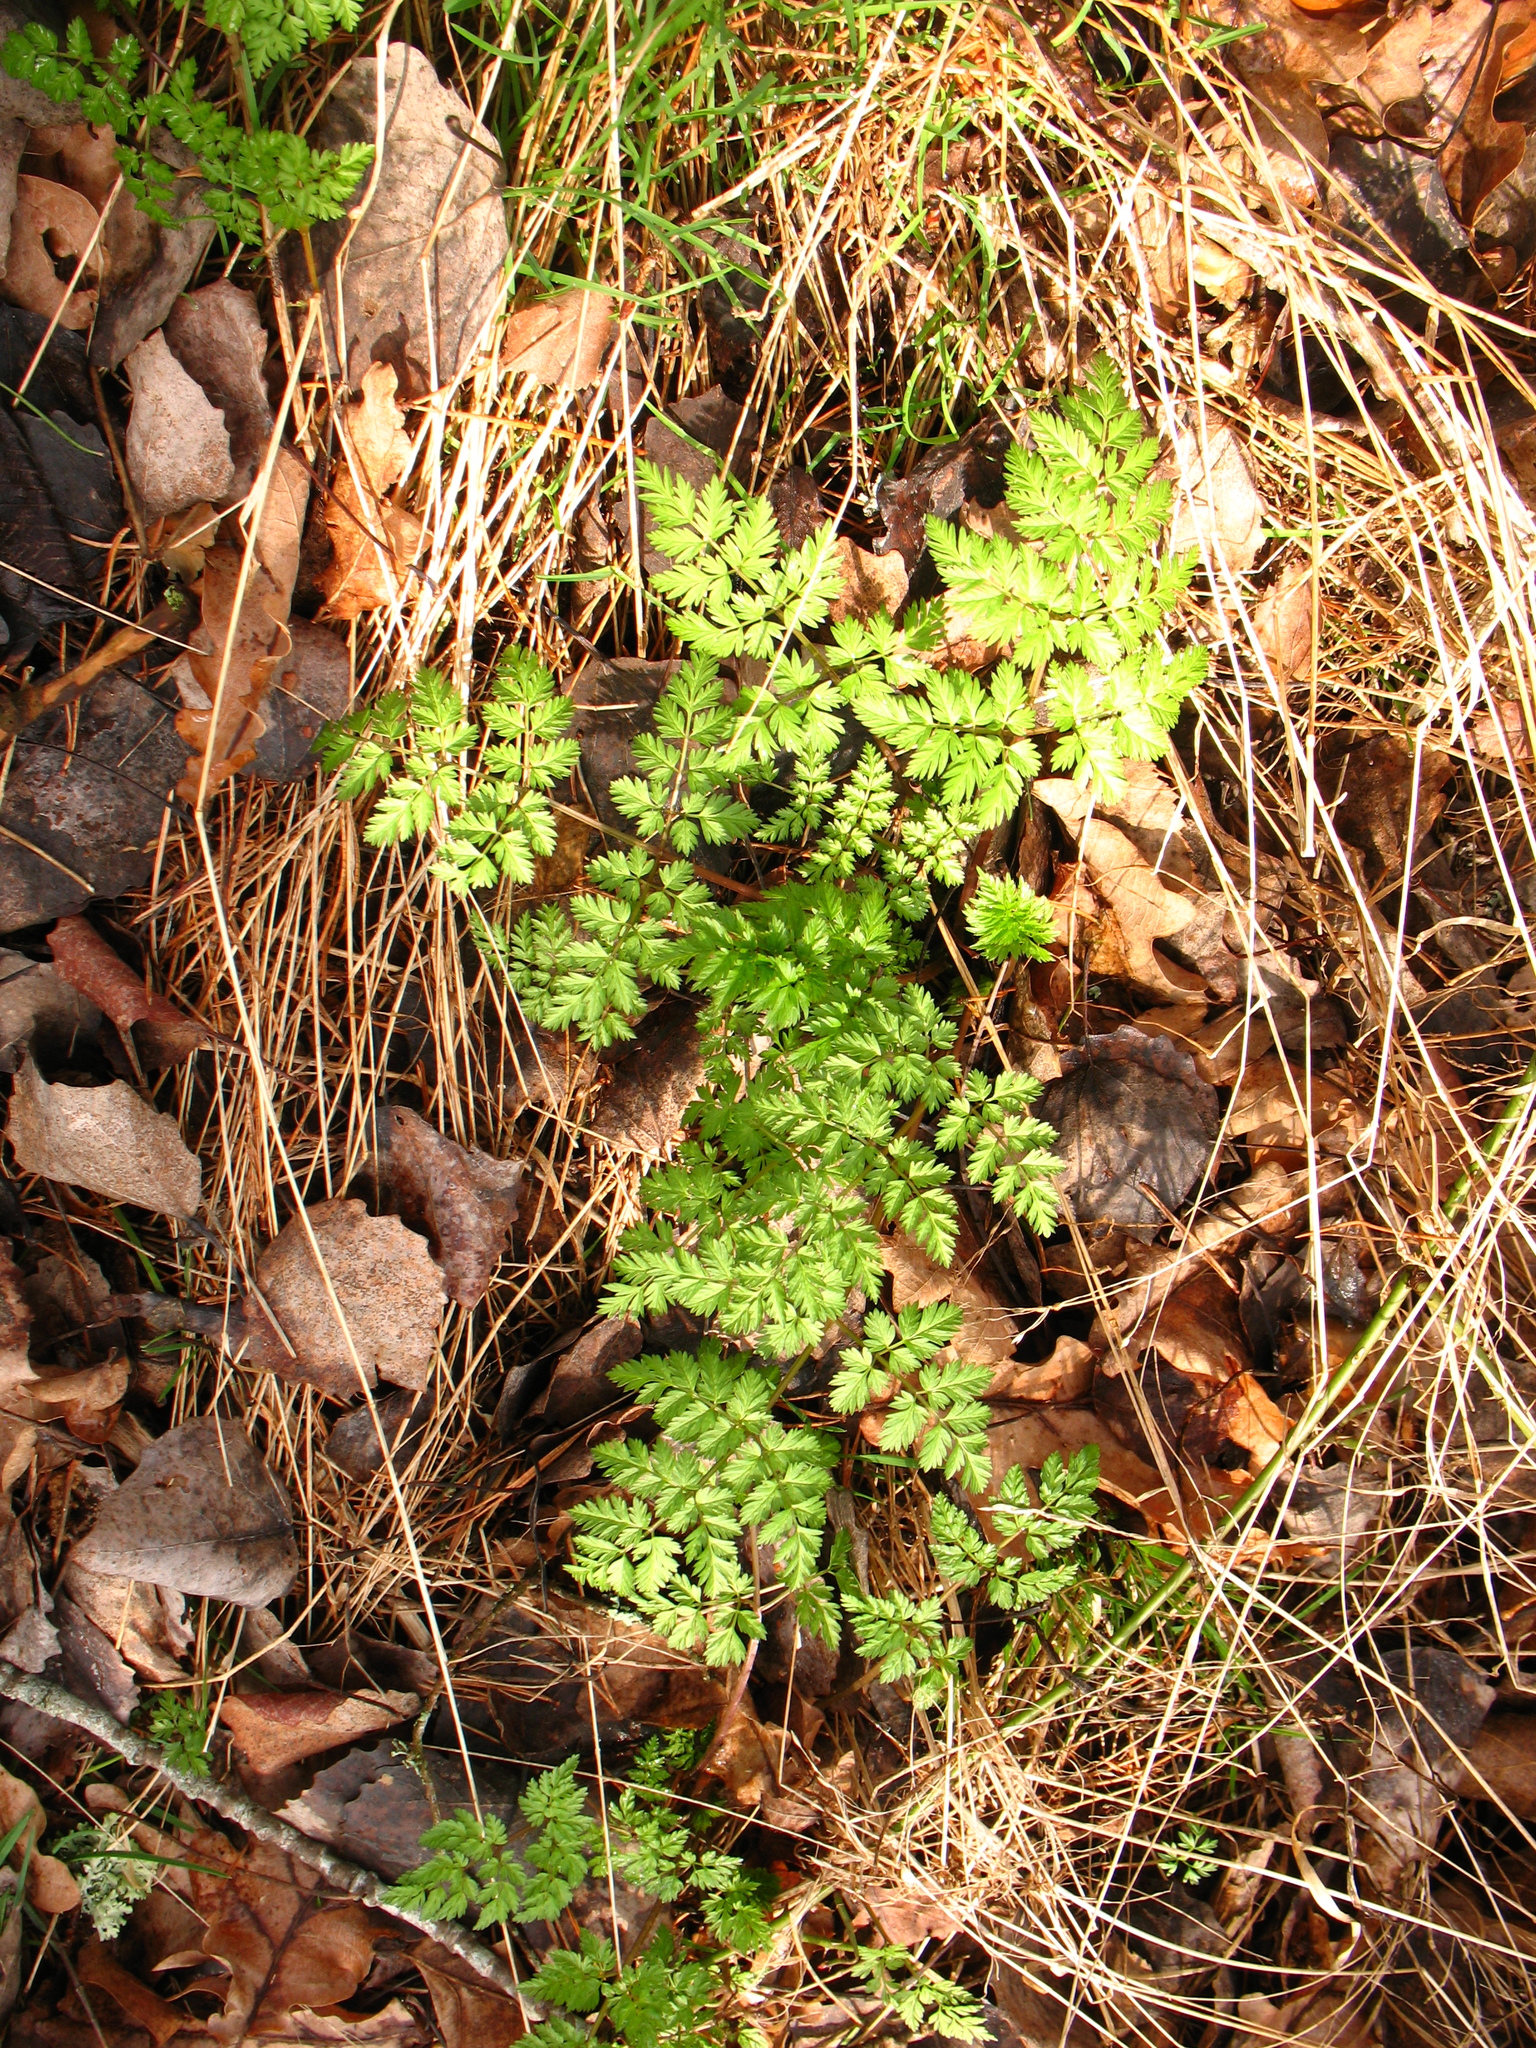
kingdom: Plantae
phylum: Tracheophyta
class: Magnoliopsida
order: Apiales
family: Apiaceae
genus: Anthriscus
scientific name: Anthriscus sylvestris
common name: Cow parsley
